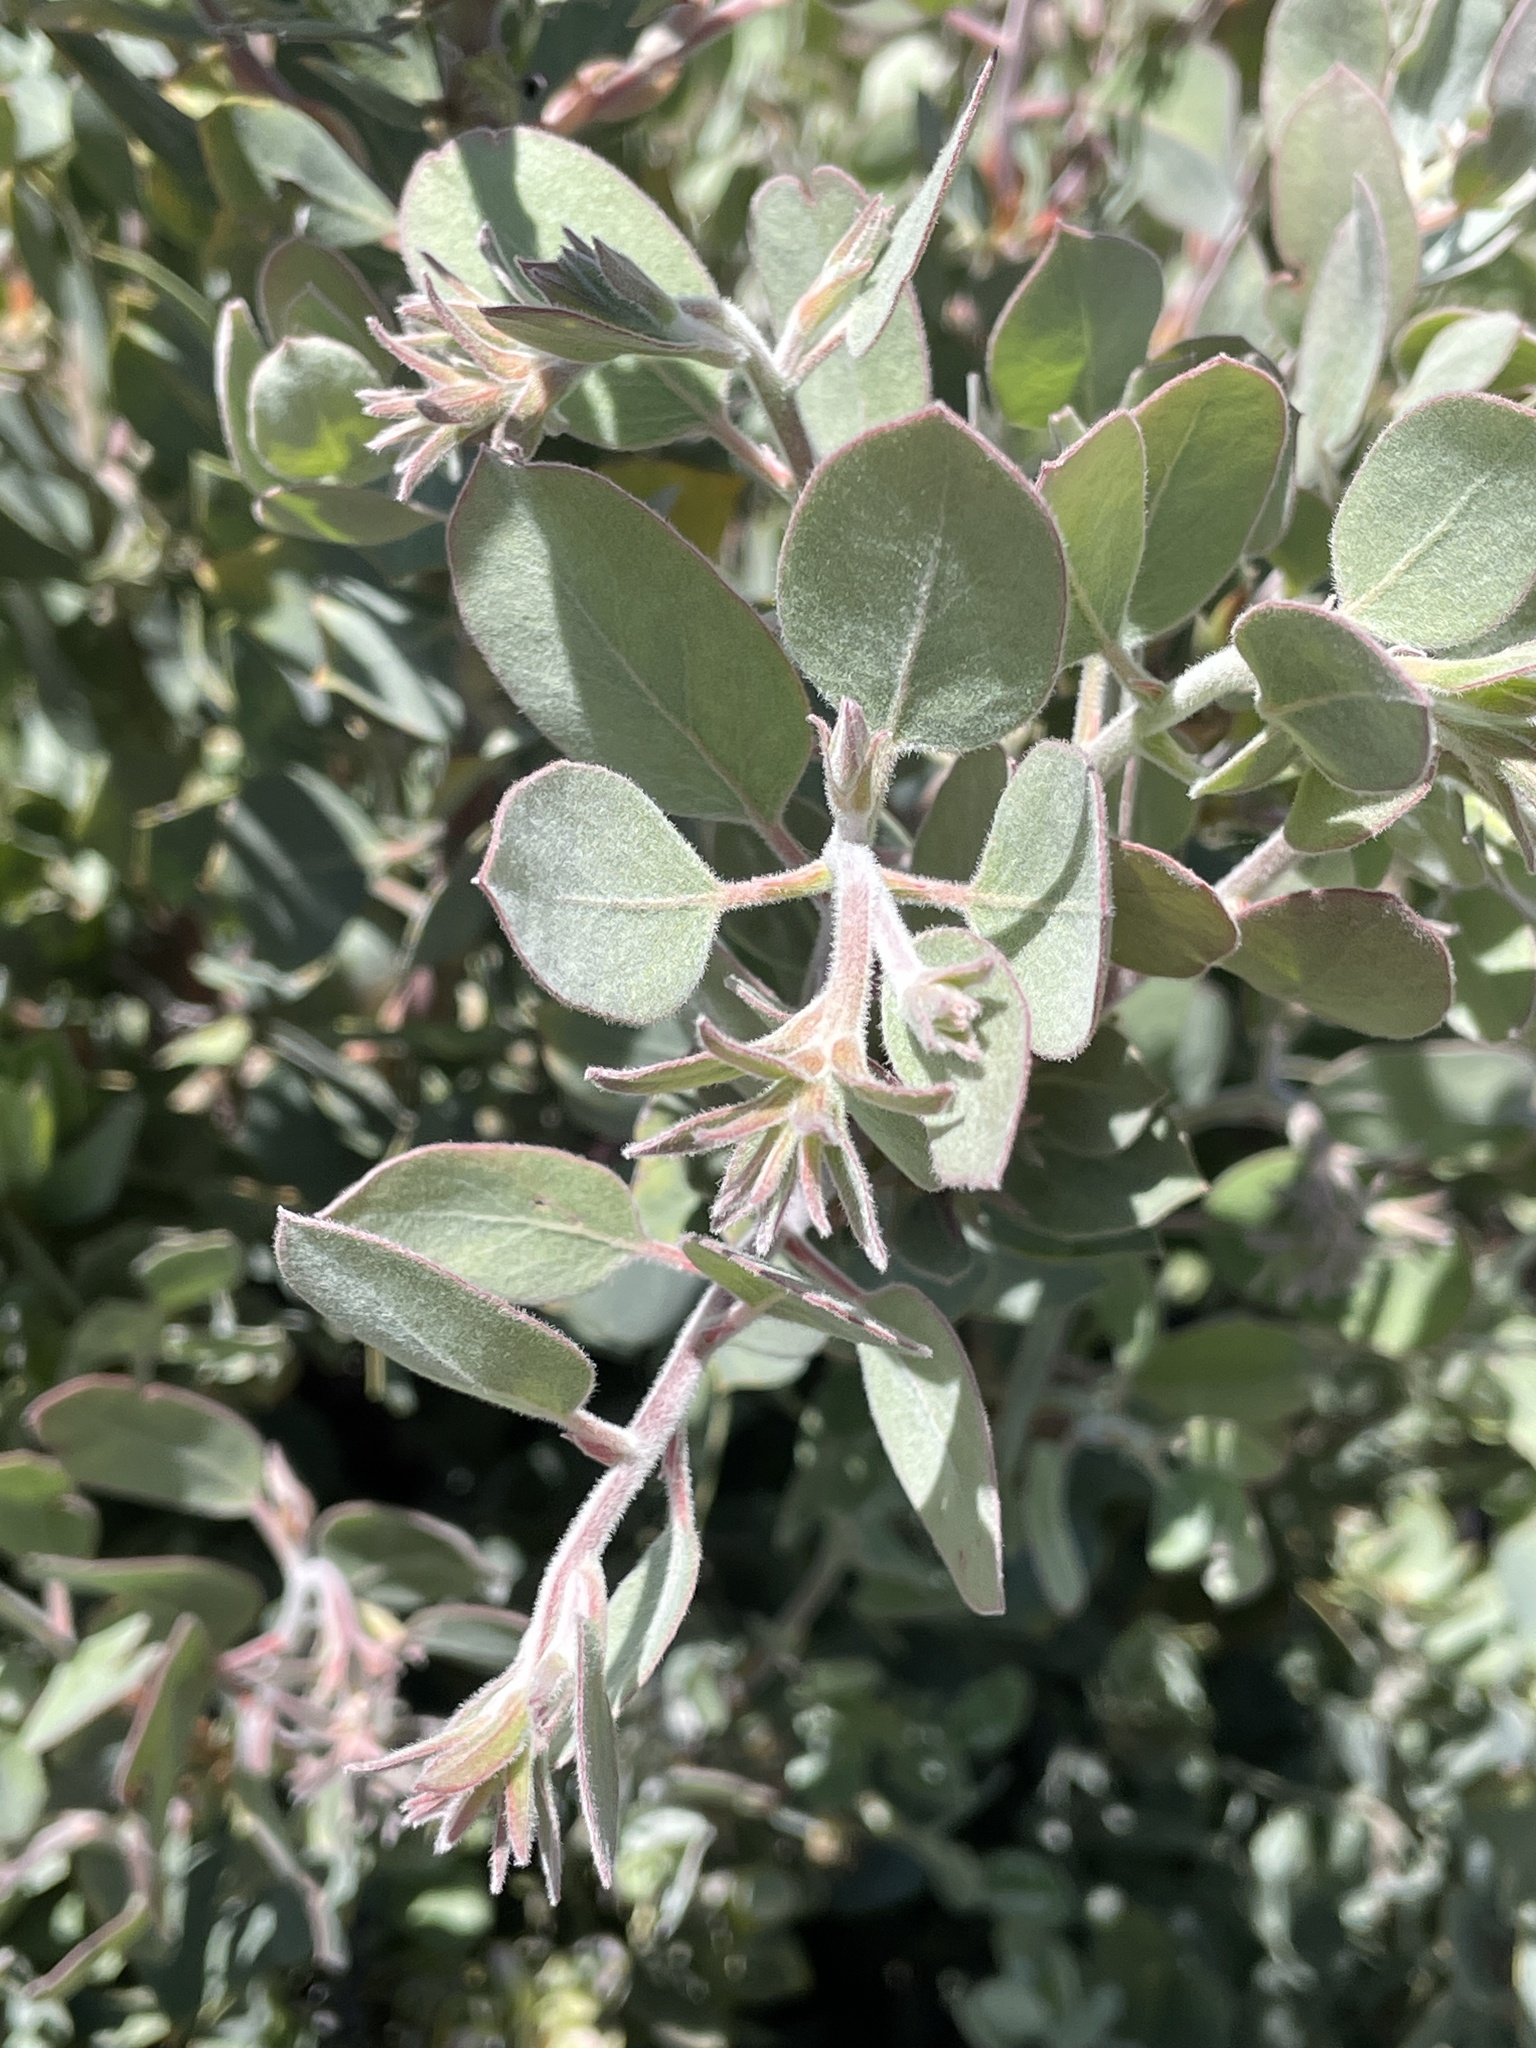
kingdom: Plantae
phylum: Tracheophyta
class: Magnoliopsida
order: Ericales
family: Ericaceae
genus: Arctostaphylos
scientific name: Arctostaphylos canescens
